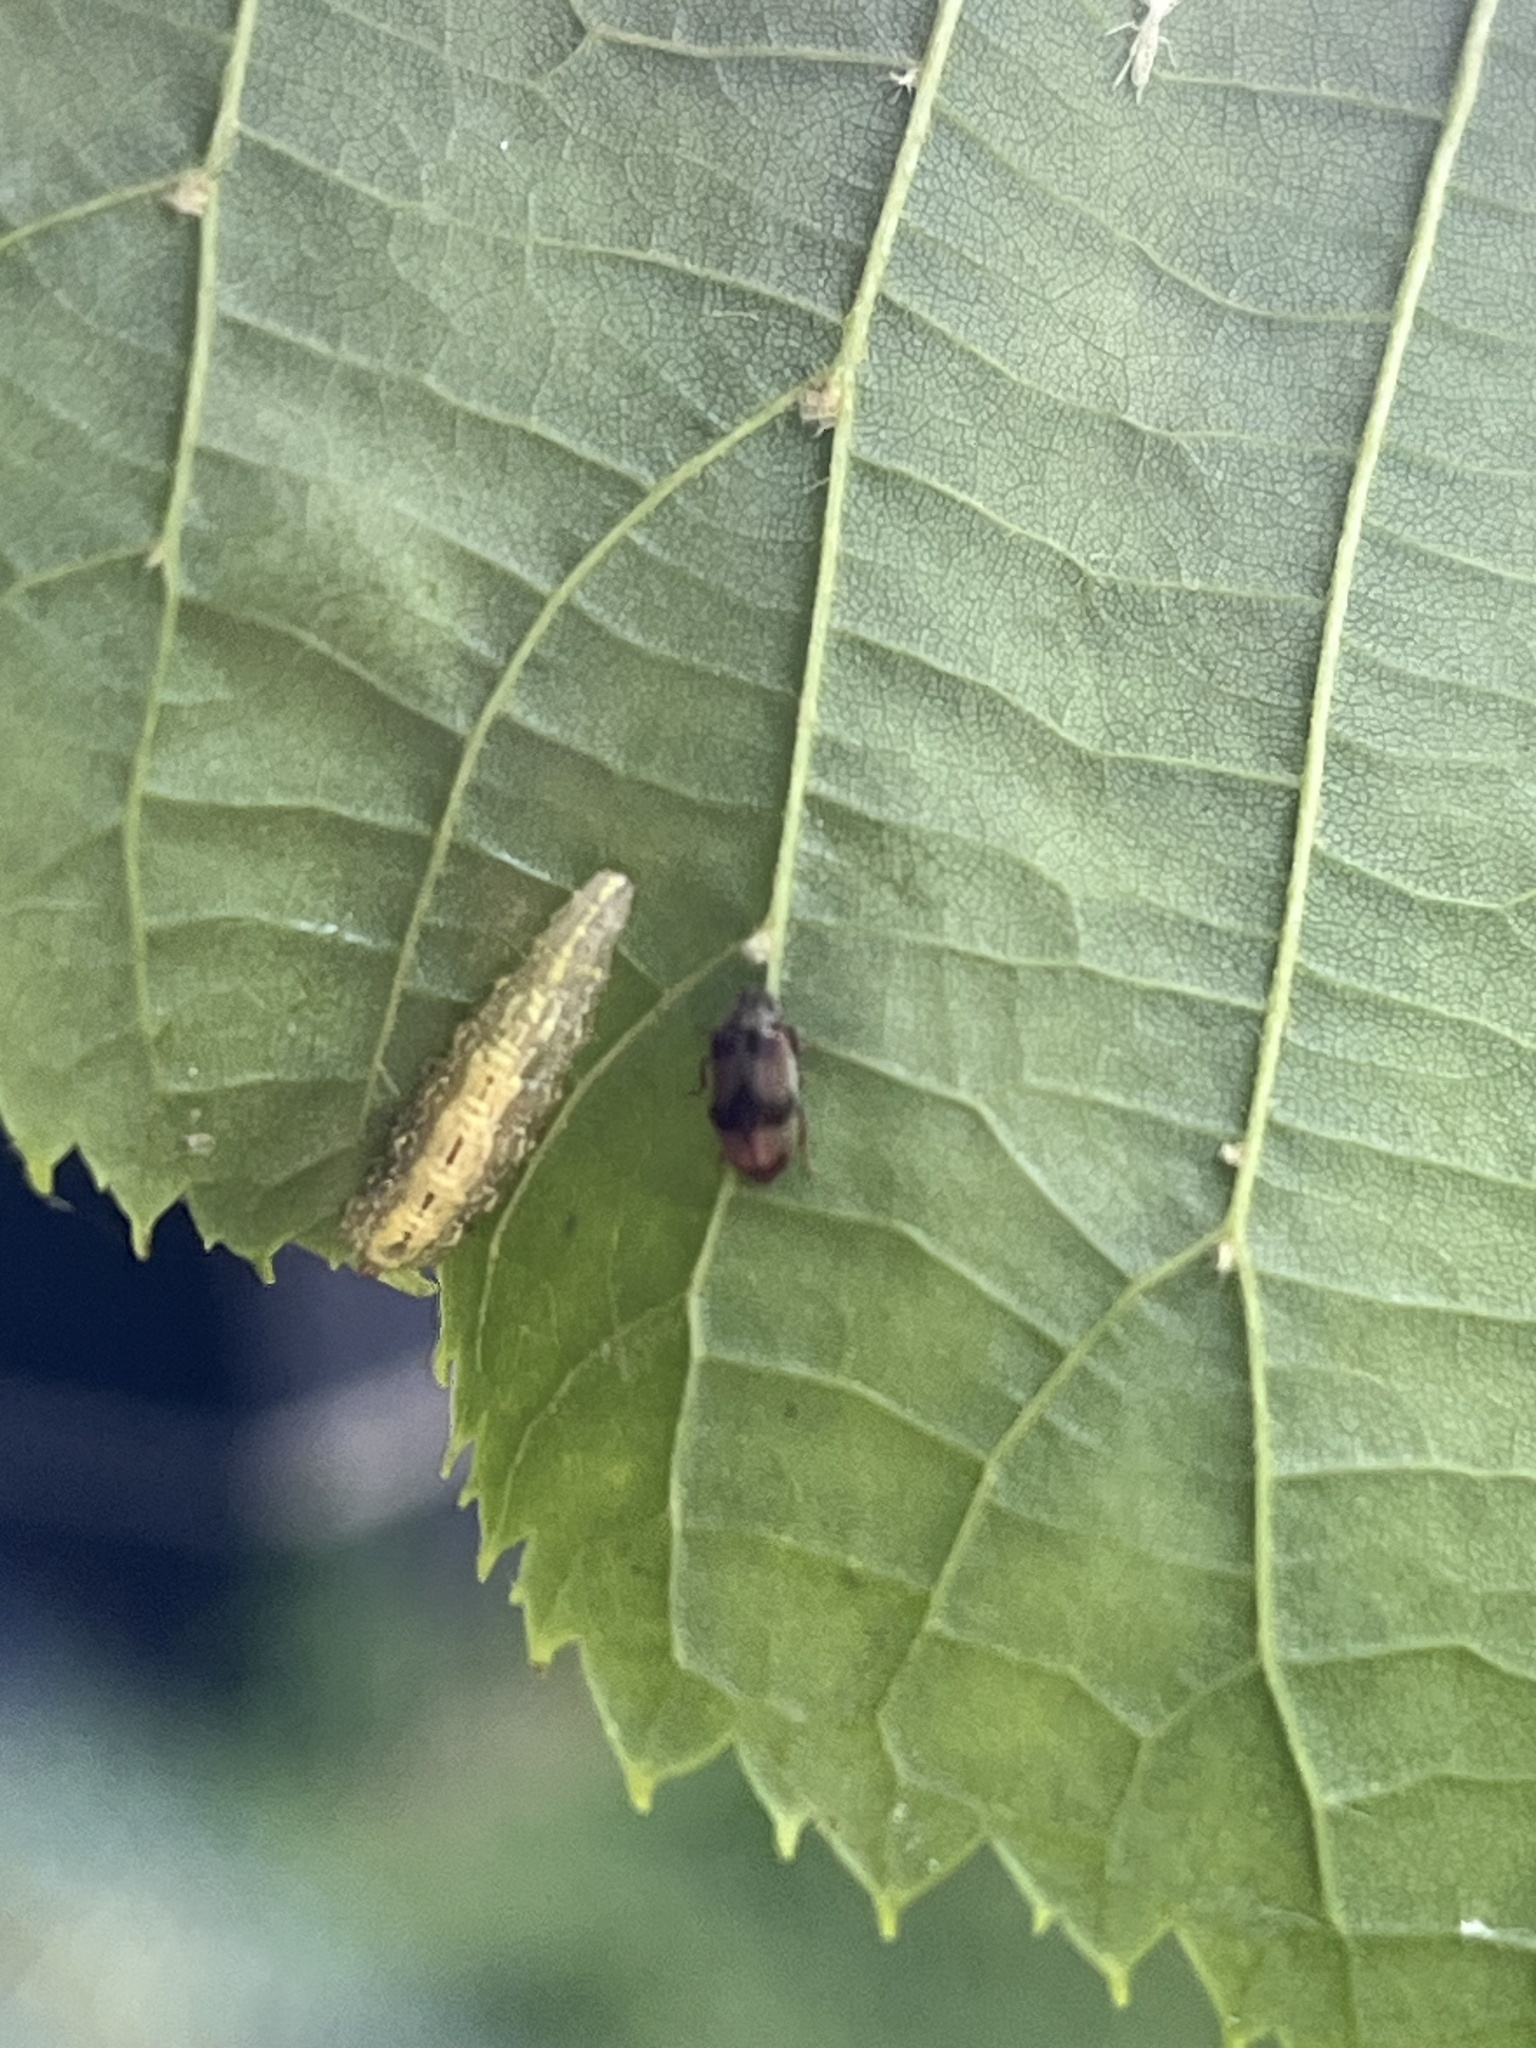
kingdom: Animalia
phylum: Arthropoda
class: Insecta
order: Diptera
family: Syrphidae
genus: Syrphus
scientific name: Syrphus
